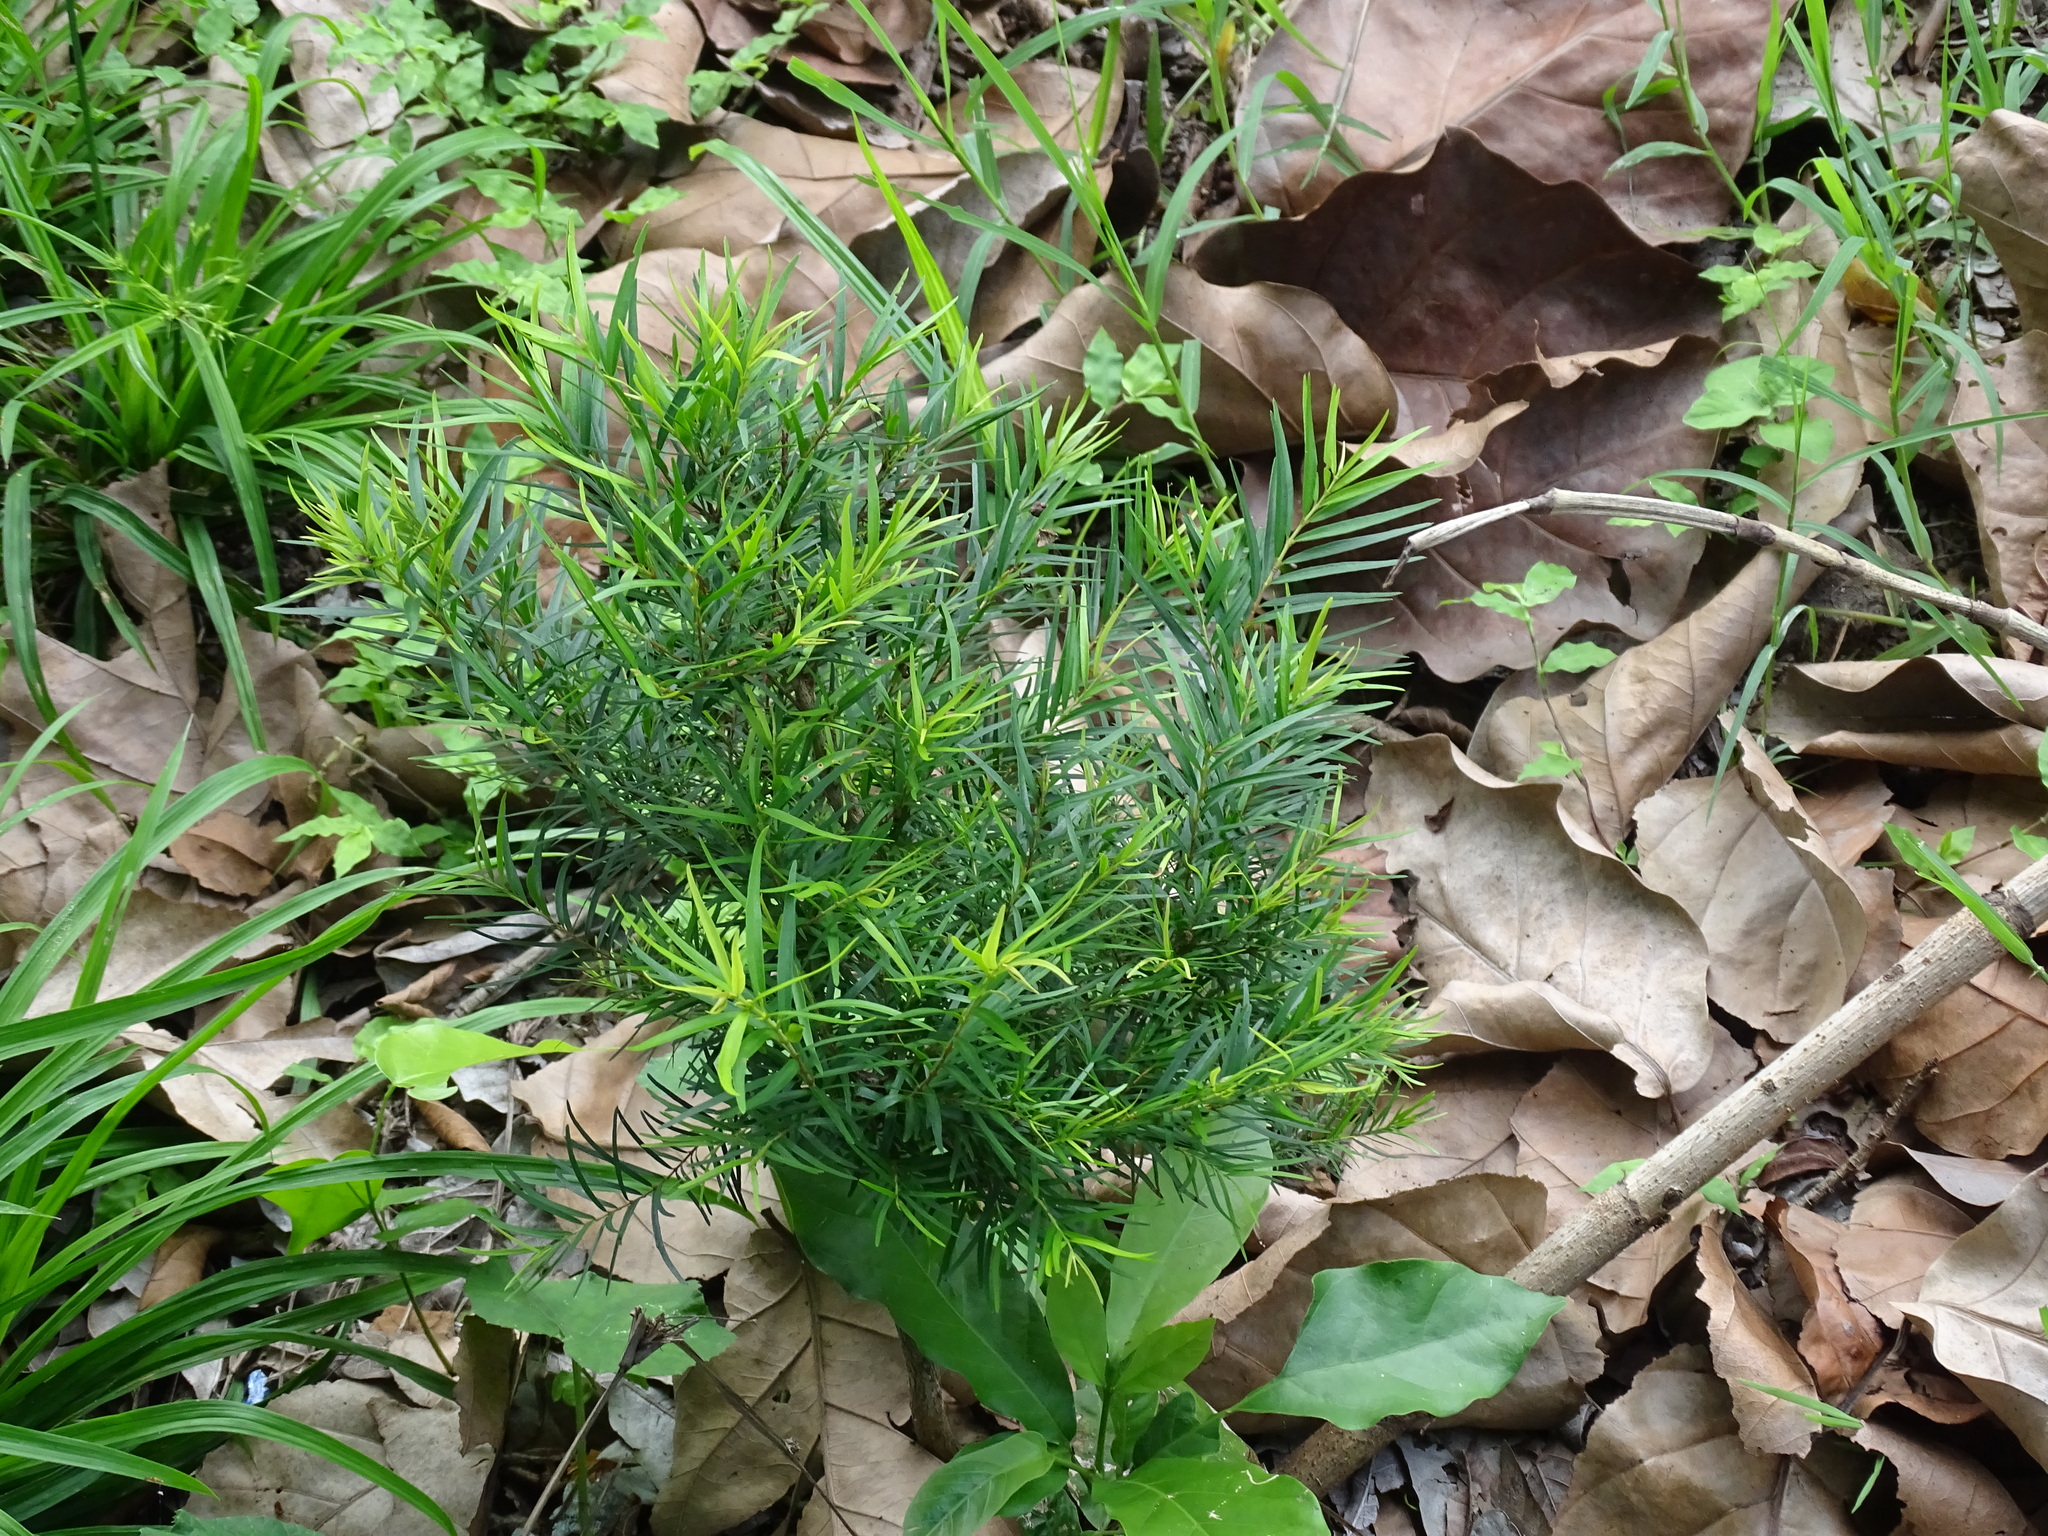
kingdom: Plantae
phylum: Tracheophyta
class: Magnoliopsida
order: Myrtales
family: Myrtaceae
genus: Eugenia
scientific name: Eugenia biflora
